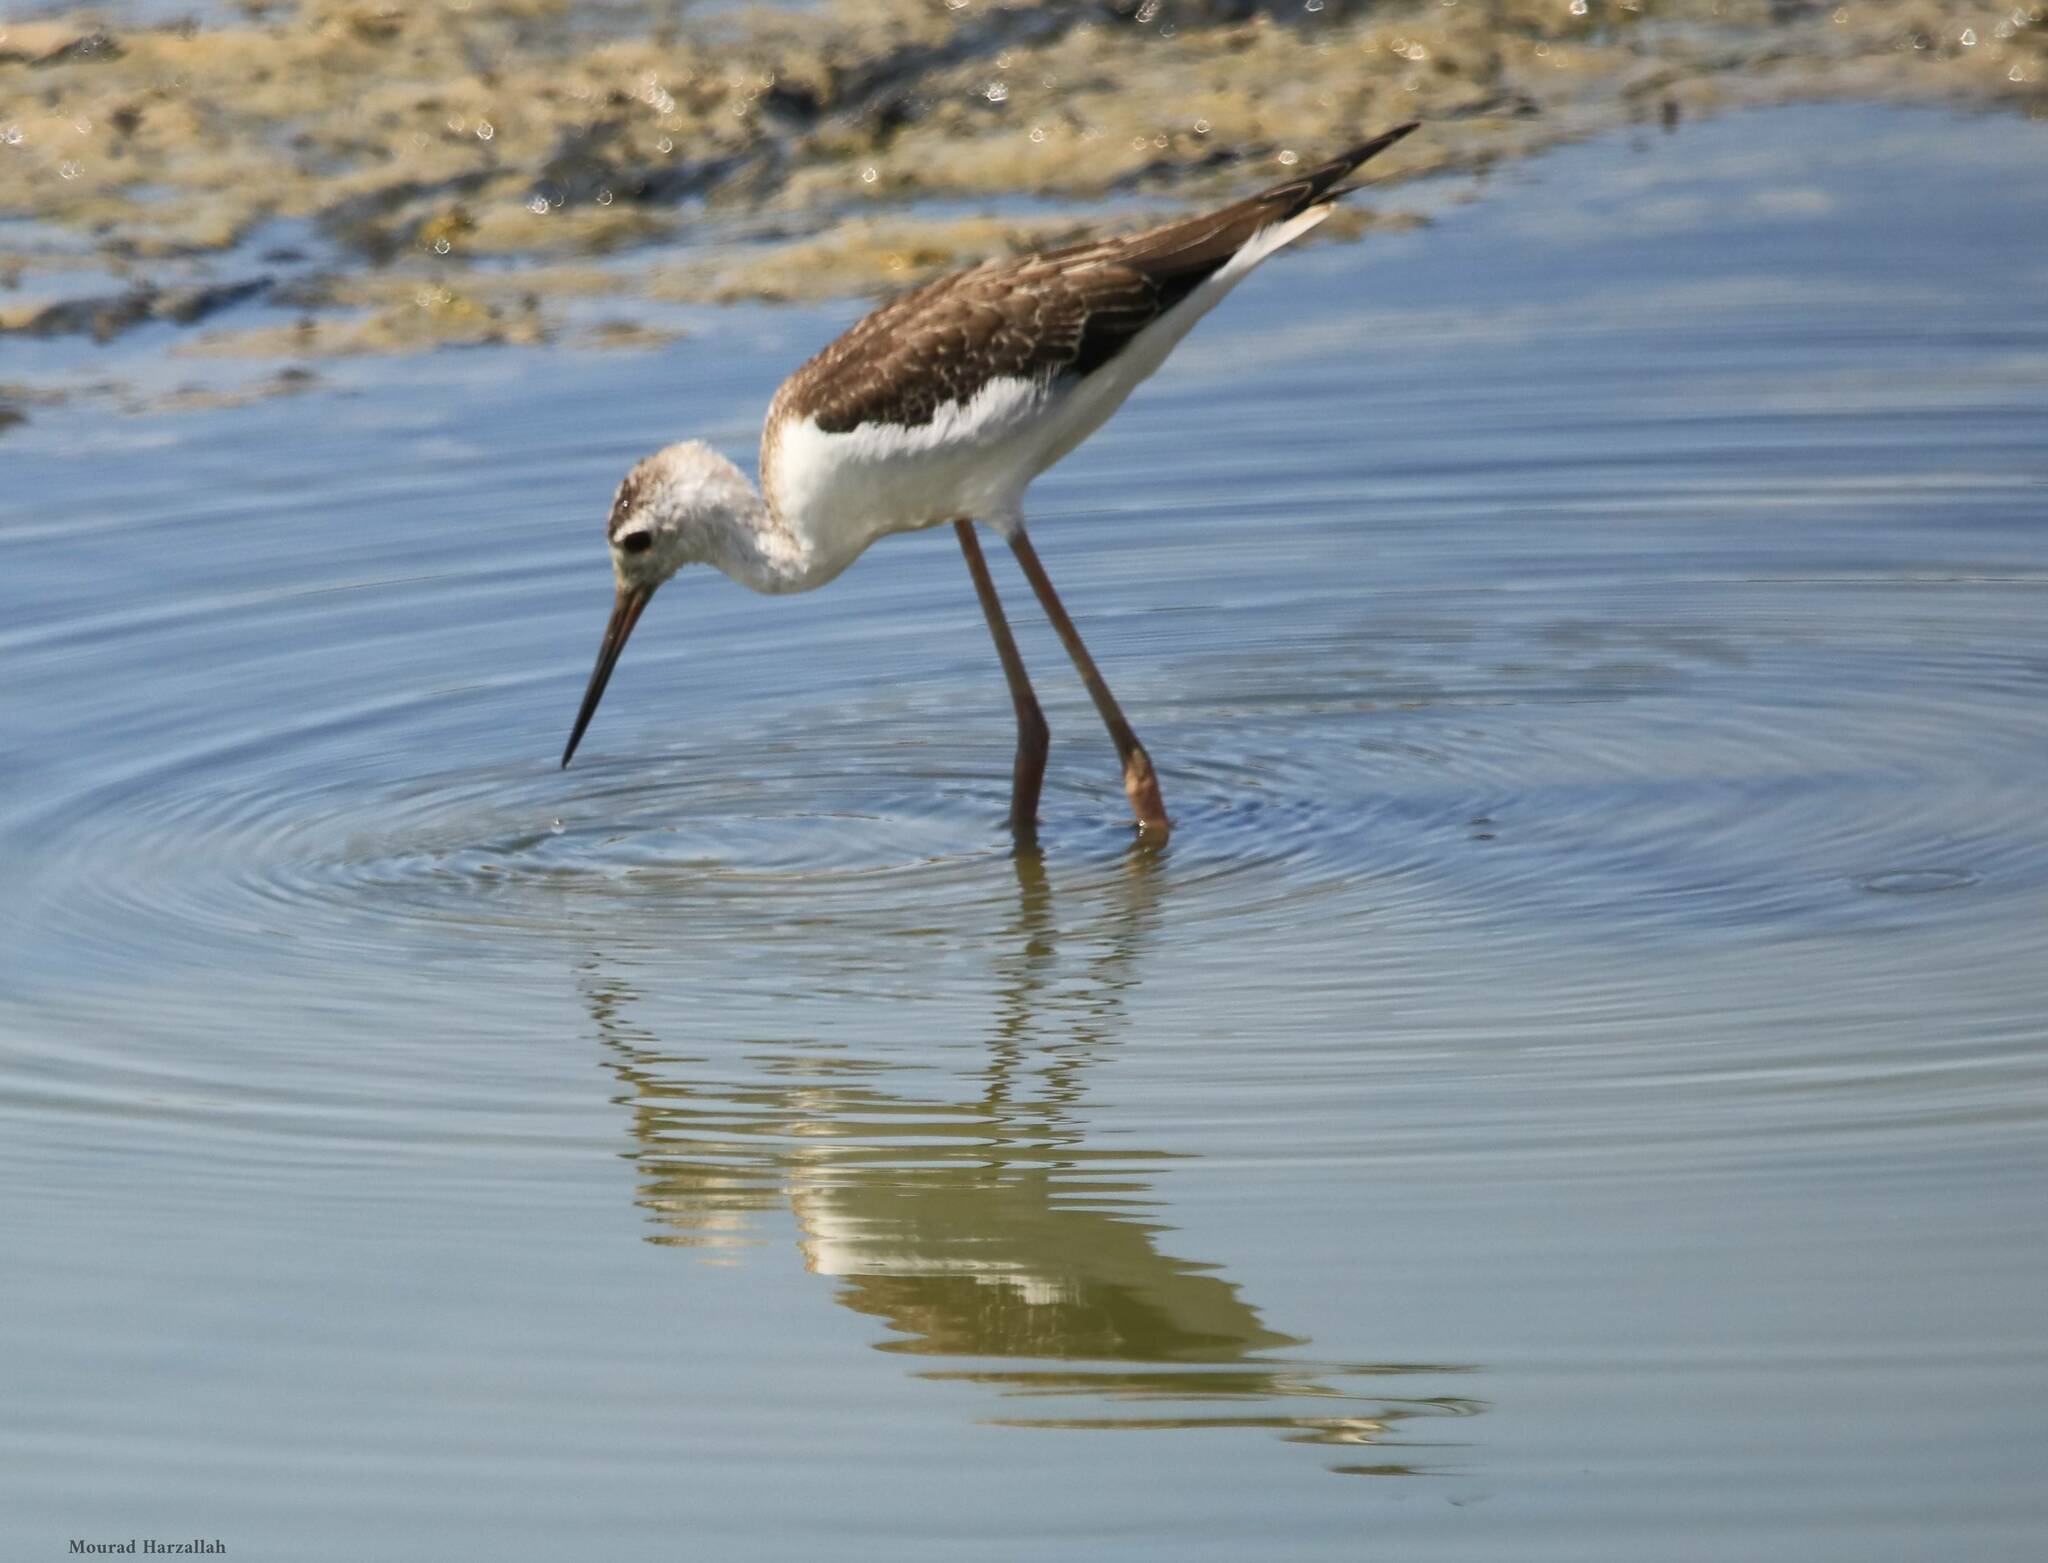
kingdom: Animalia
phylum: Chordata
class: Aves
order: Charadriiformes
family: Recurvirostridae
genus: Himantopus
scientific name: Himantopus himantopus
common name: Black-winged stilt
